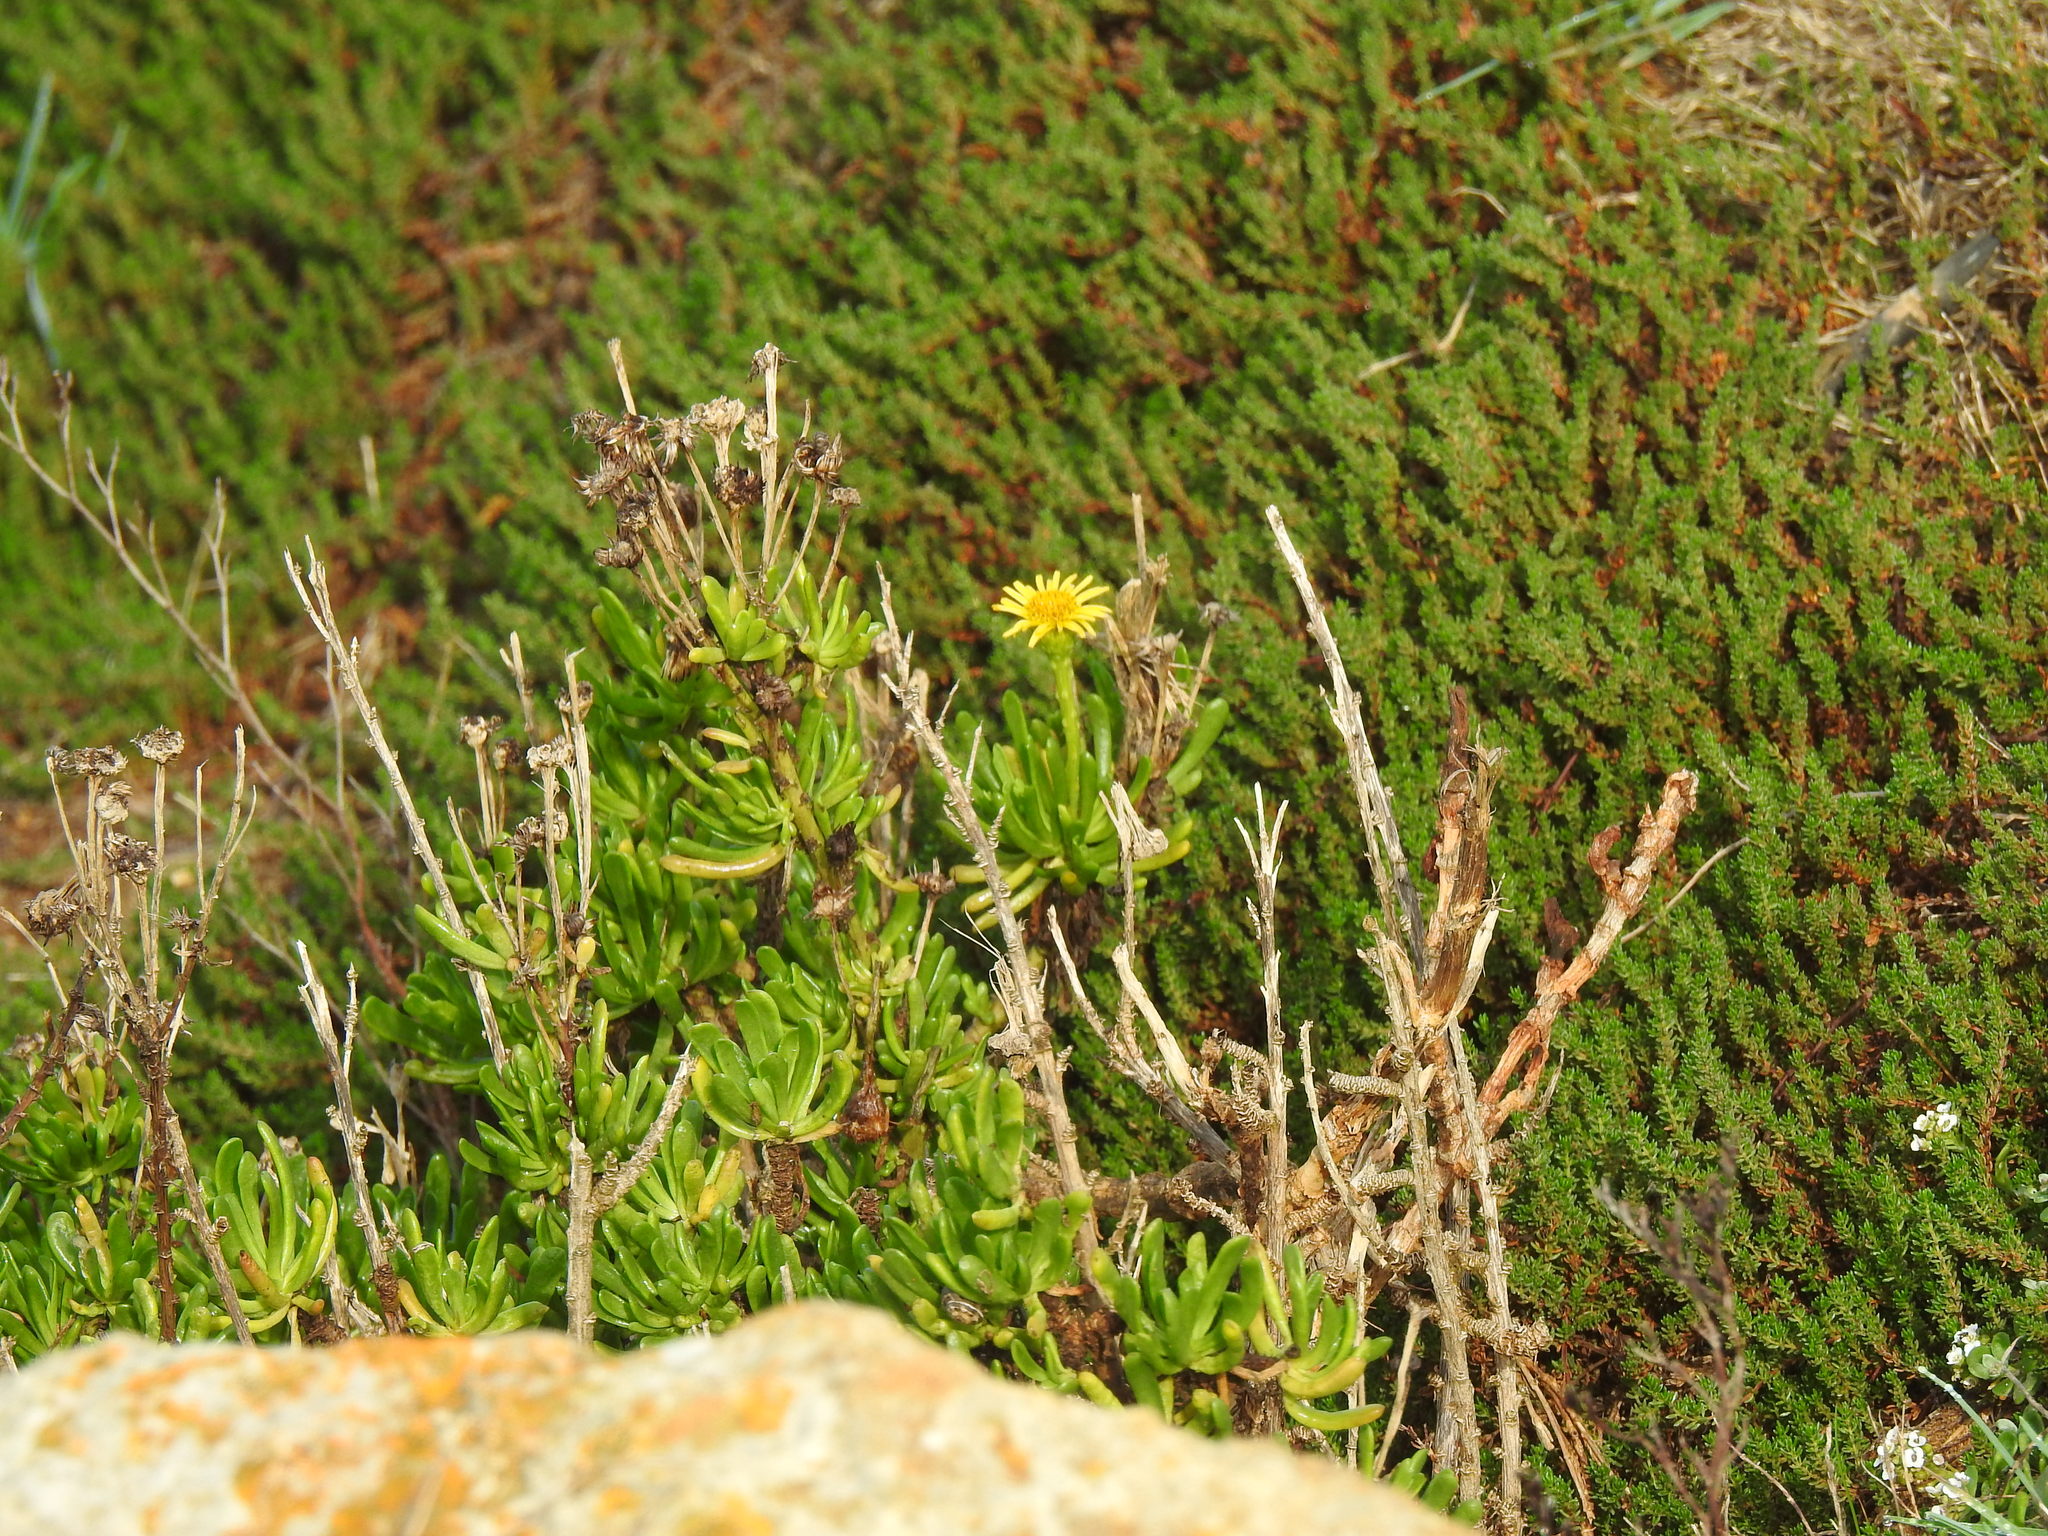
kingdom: Plantae
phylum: Tracheophyta
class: Magnoliopsida
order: Asterales
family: Asteraceae
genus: Limbarda
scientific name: Limbarda crithmoides
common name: Golden samphire
